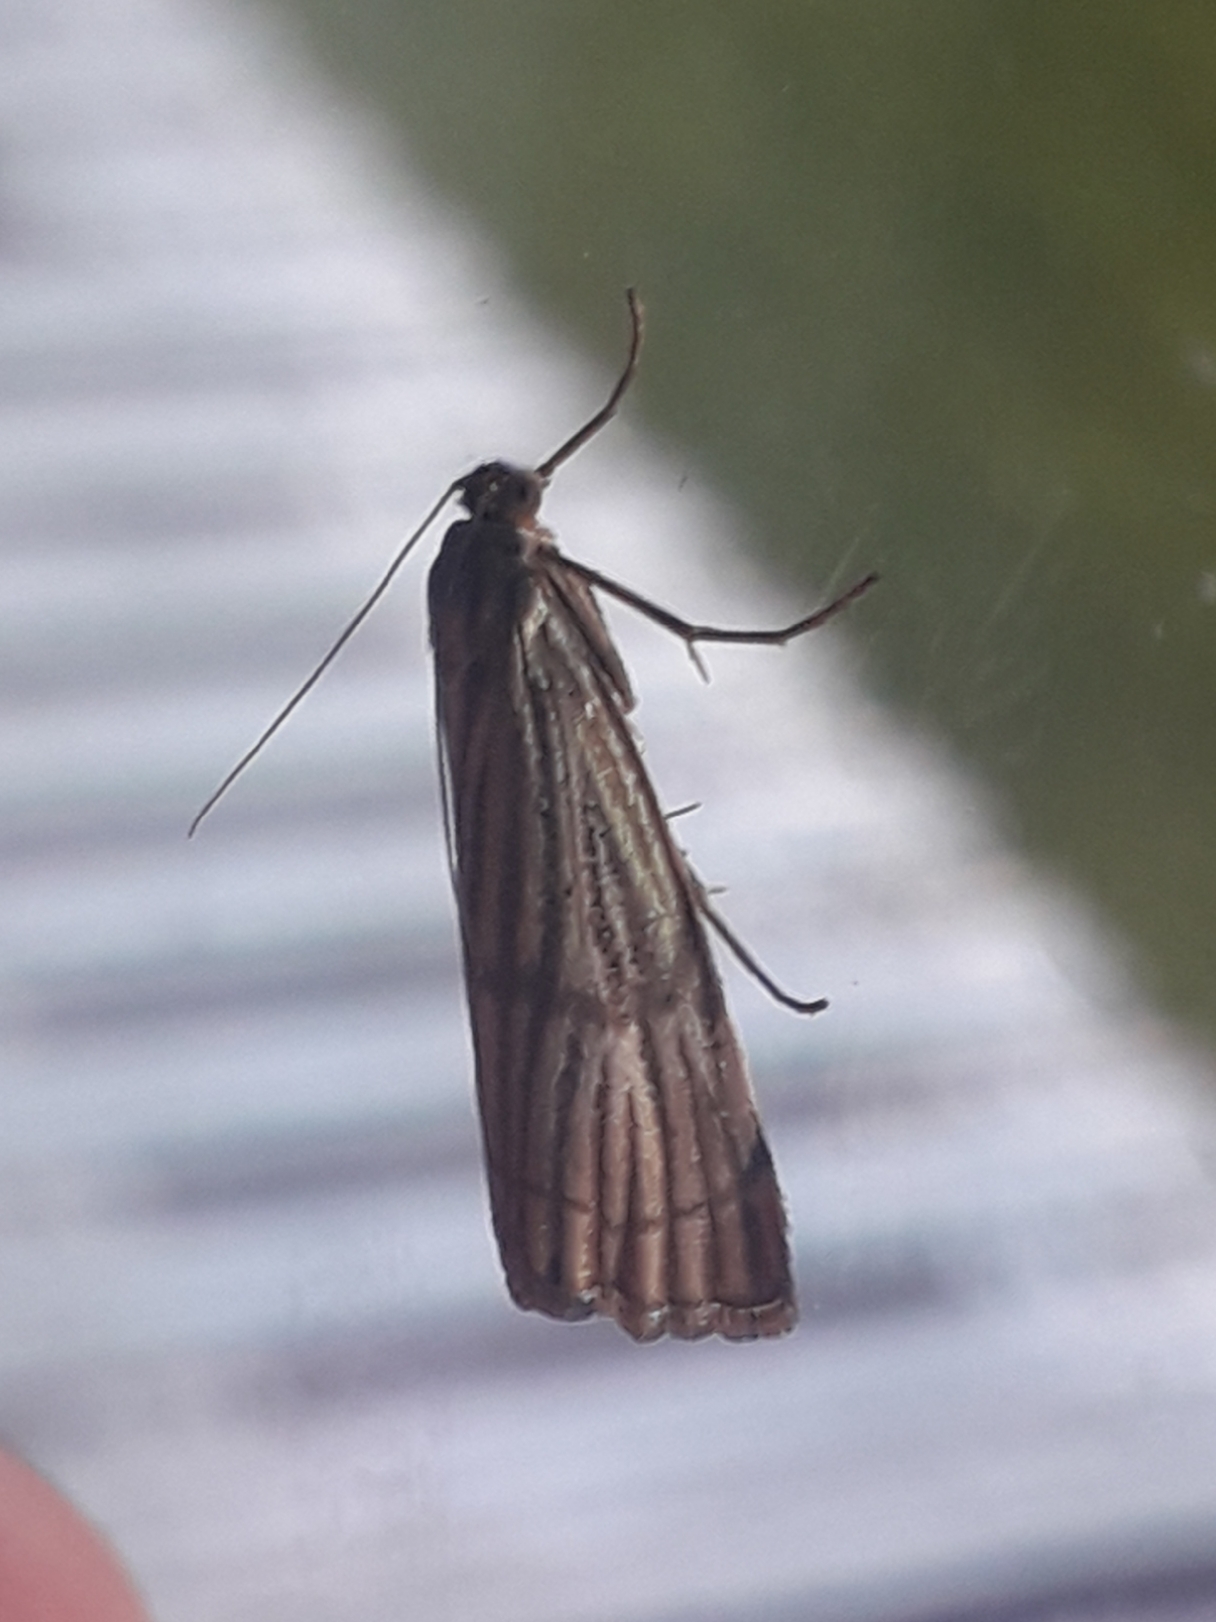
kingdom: Animalia
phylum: Arthropoda
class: Insecta
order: Lepidoptera
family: Crambidae
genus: Chrysocrambus
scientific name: Chrysocrambus Chrysocramboides craterellus
